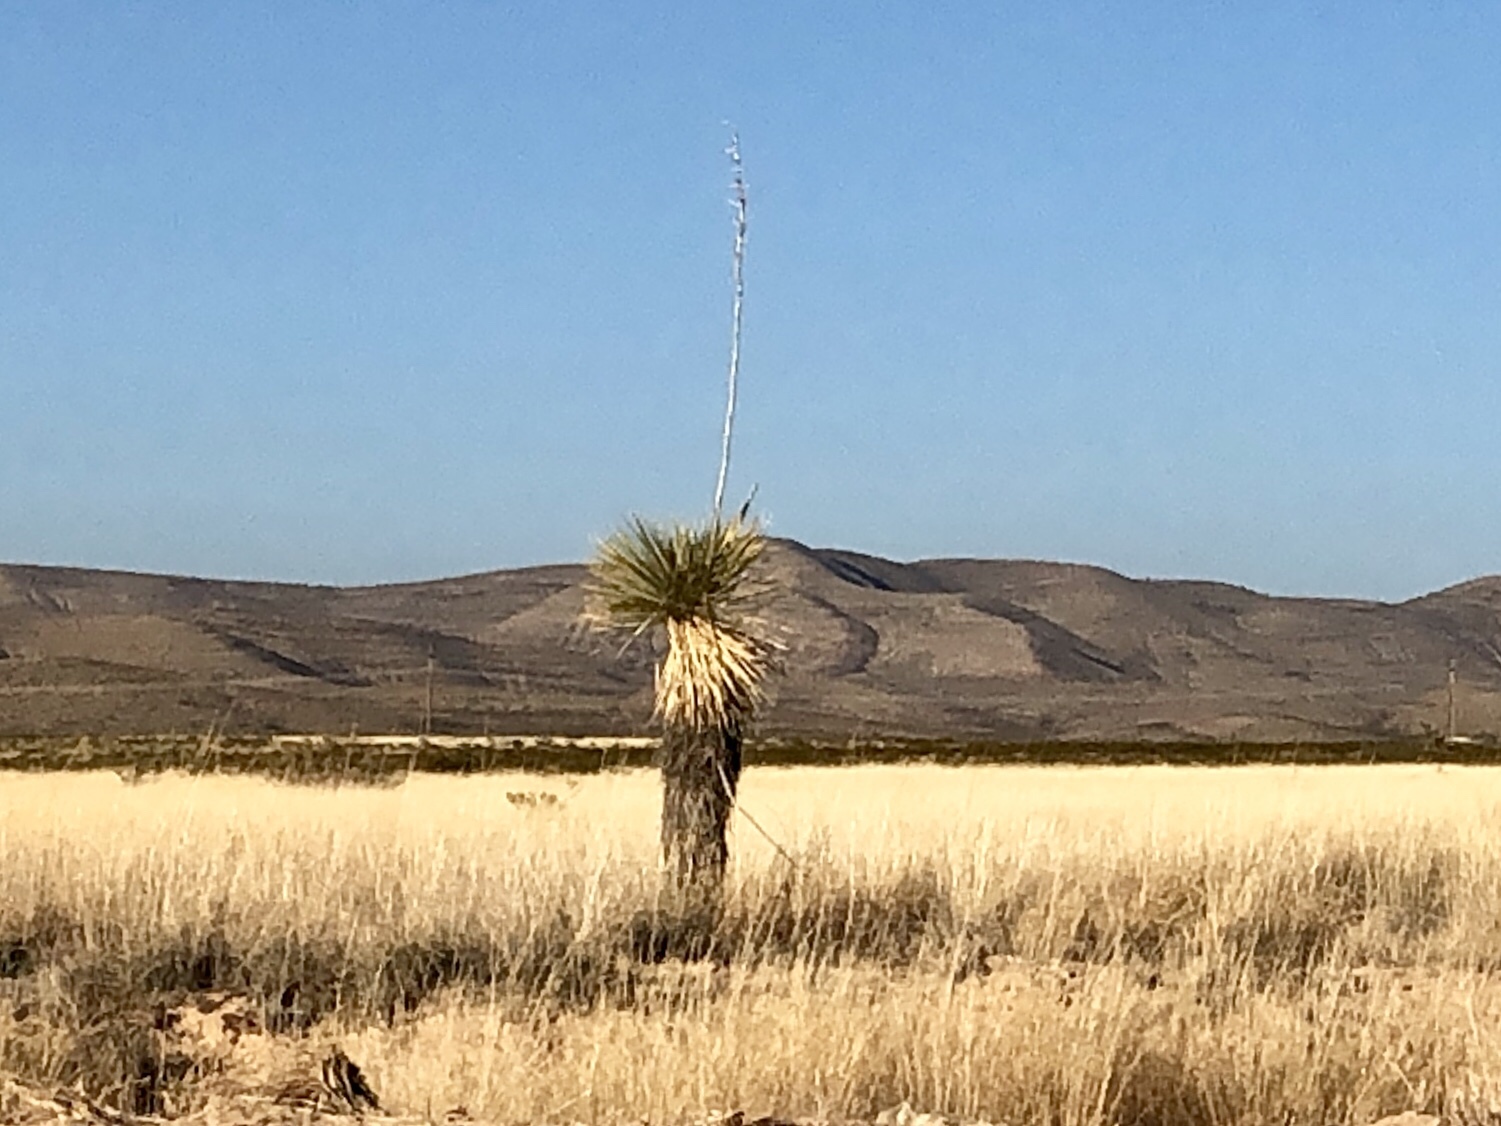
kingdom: Plantae
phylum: Tracheophyta
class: Liliopsida
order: Asparagales
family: Asparagaceae
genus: Yucca
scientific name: Yucca elata
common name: Palmella
